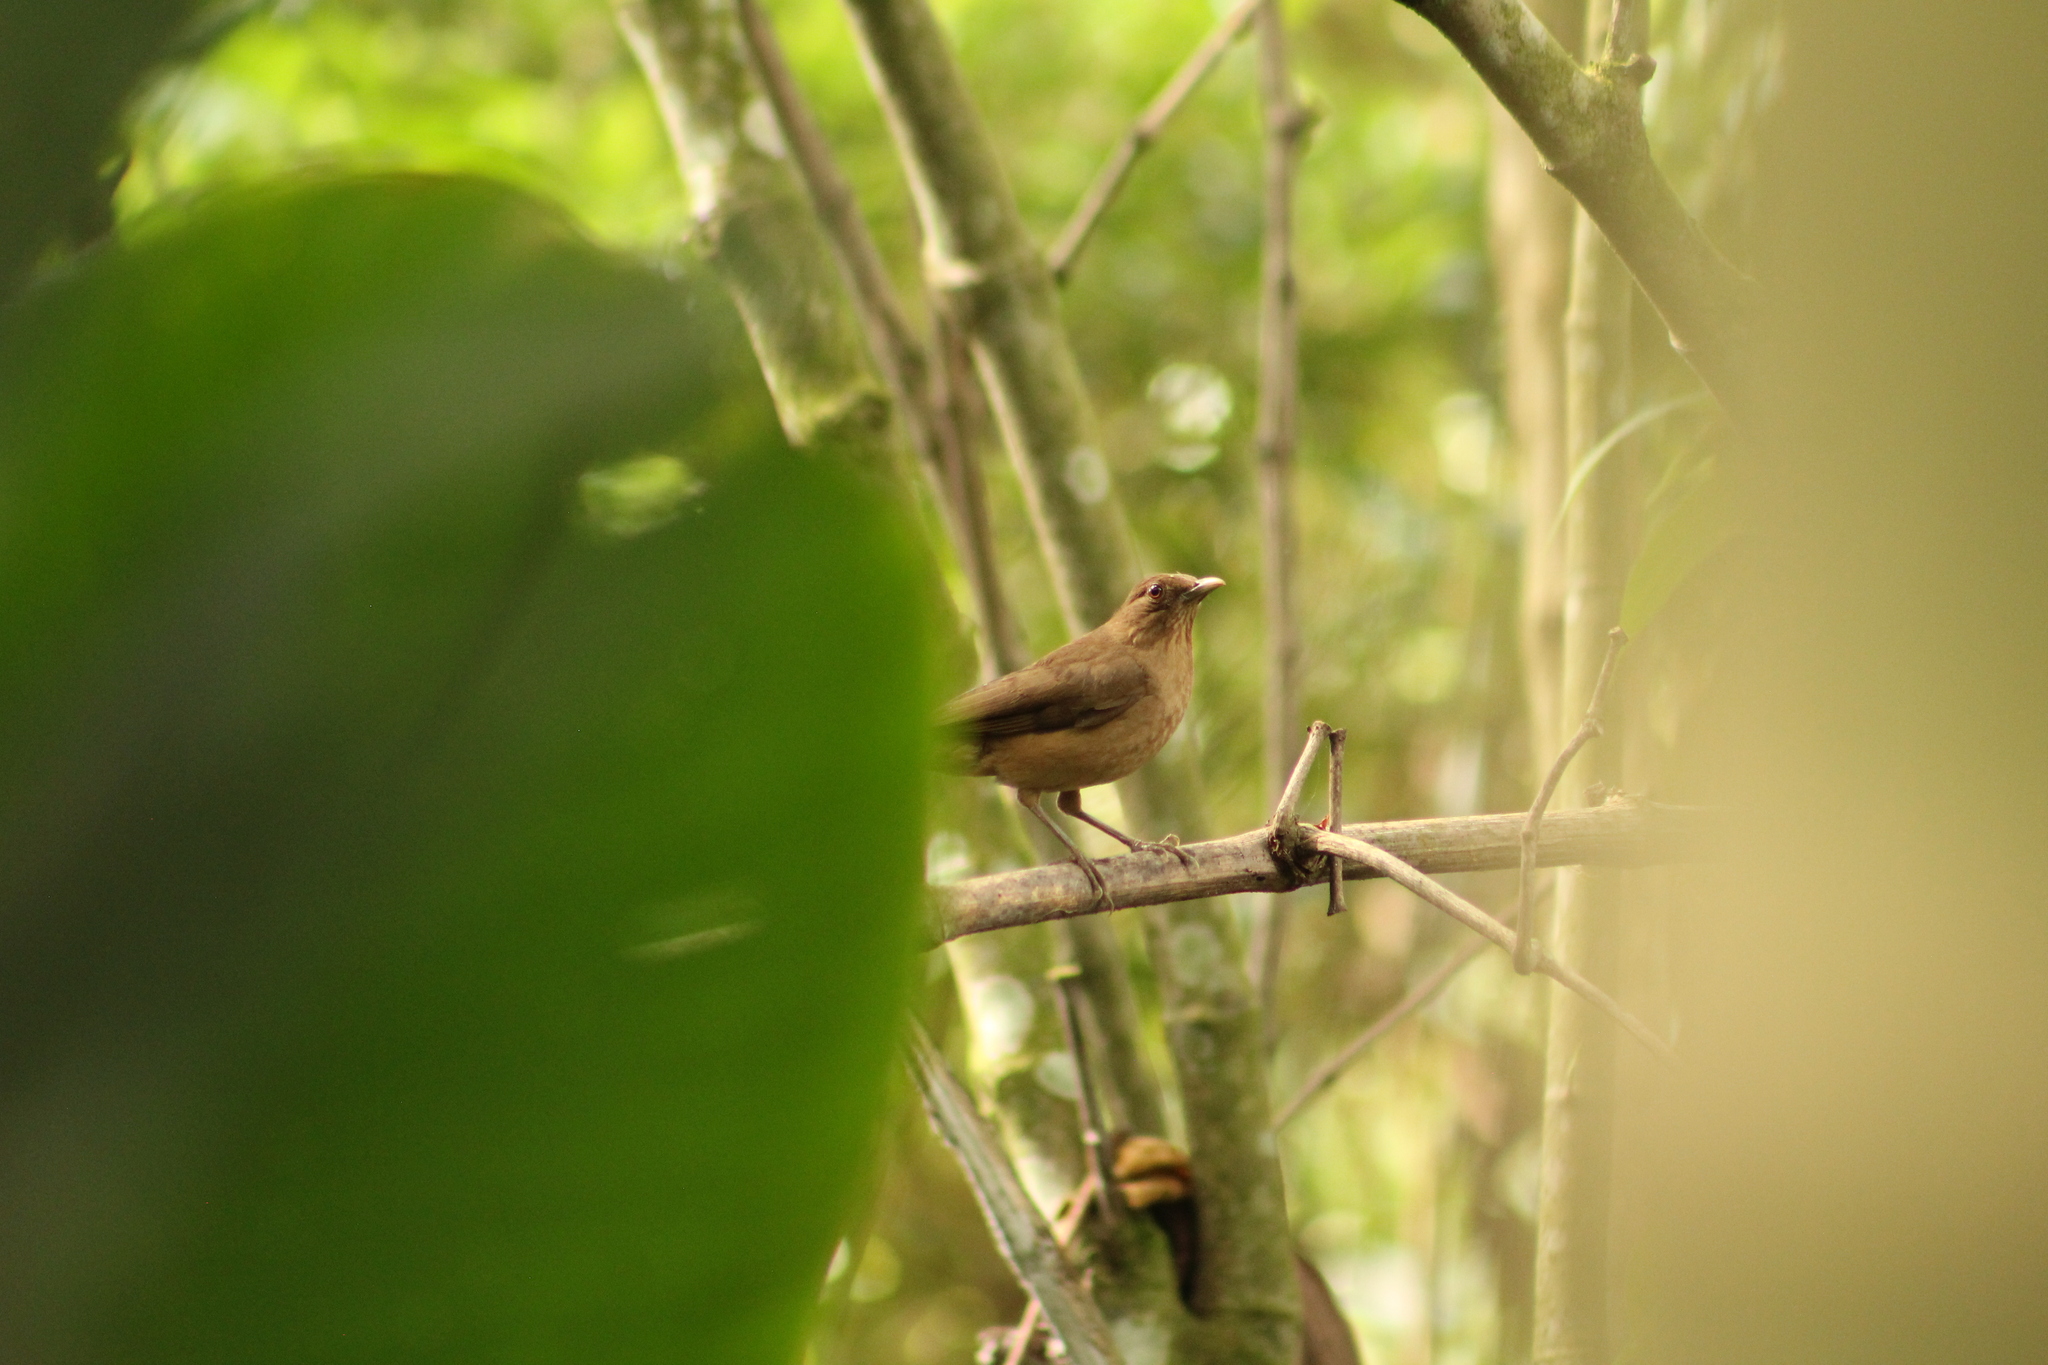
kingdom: Animalia
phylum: Chordata
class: Aves
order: Passeriformes
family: Turdidae
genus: Turdus
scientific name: Turdus grayi
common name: Clay-colored thrush
